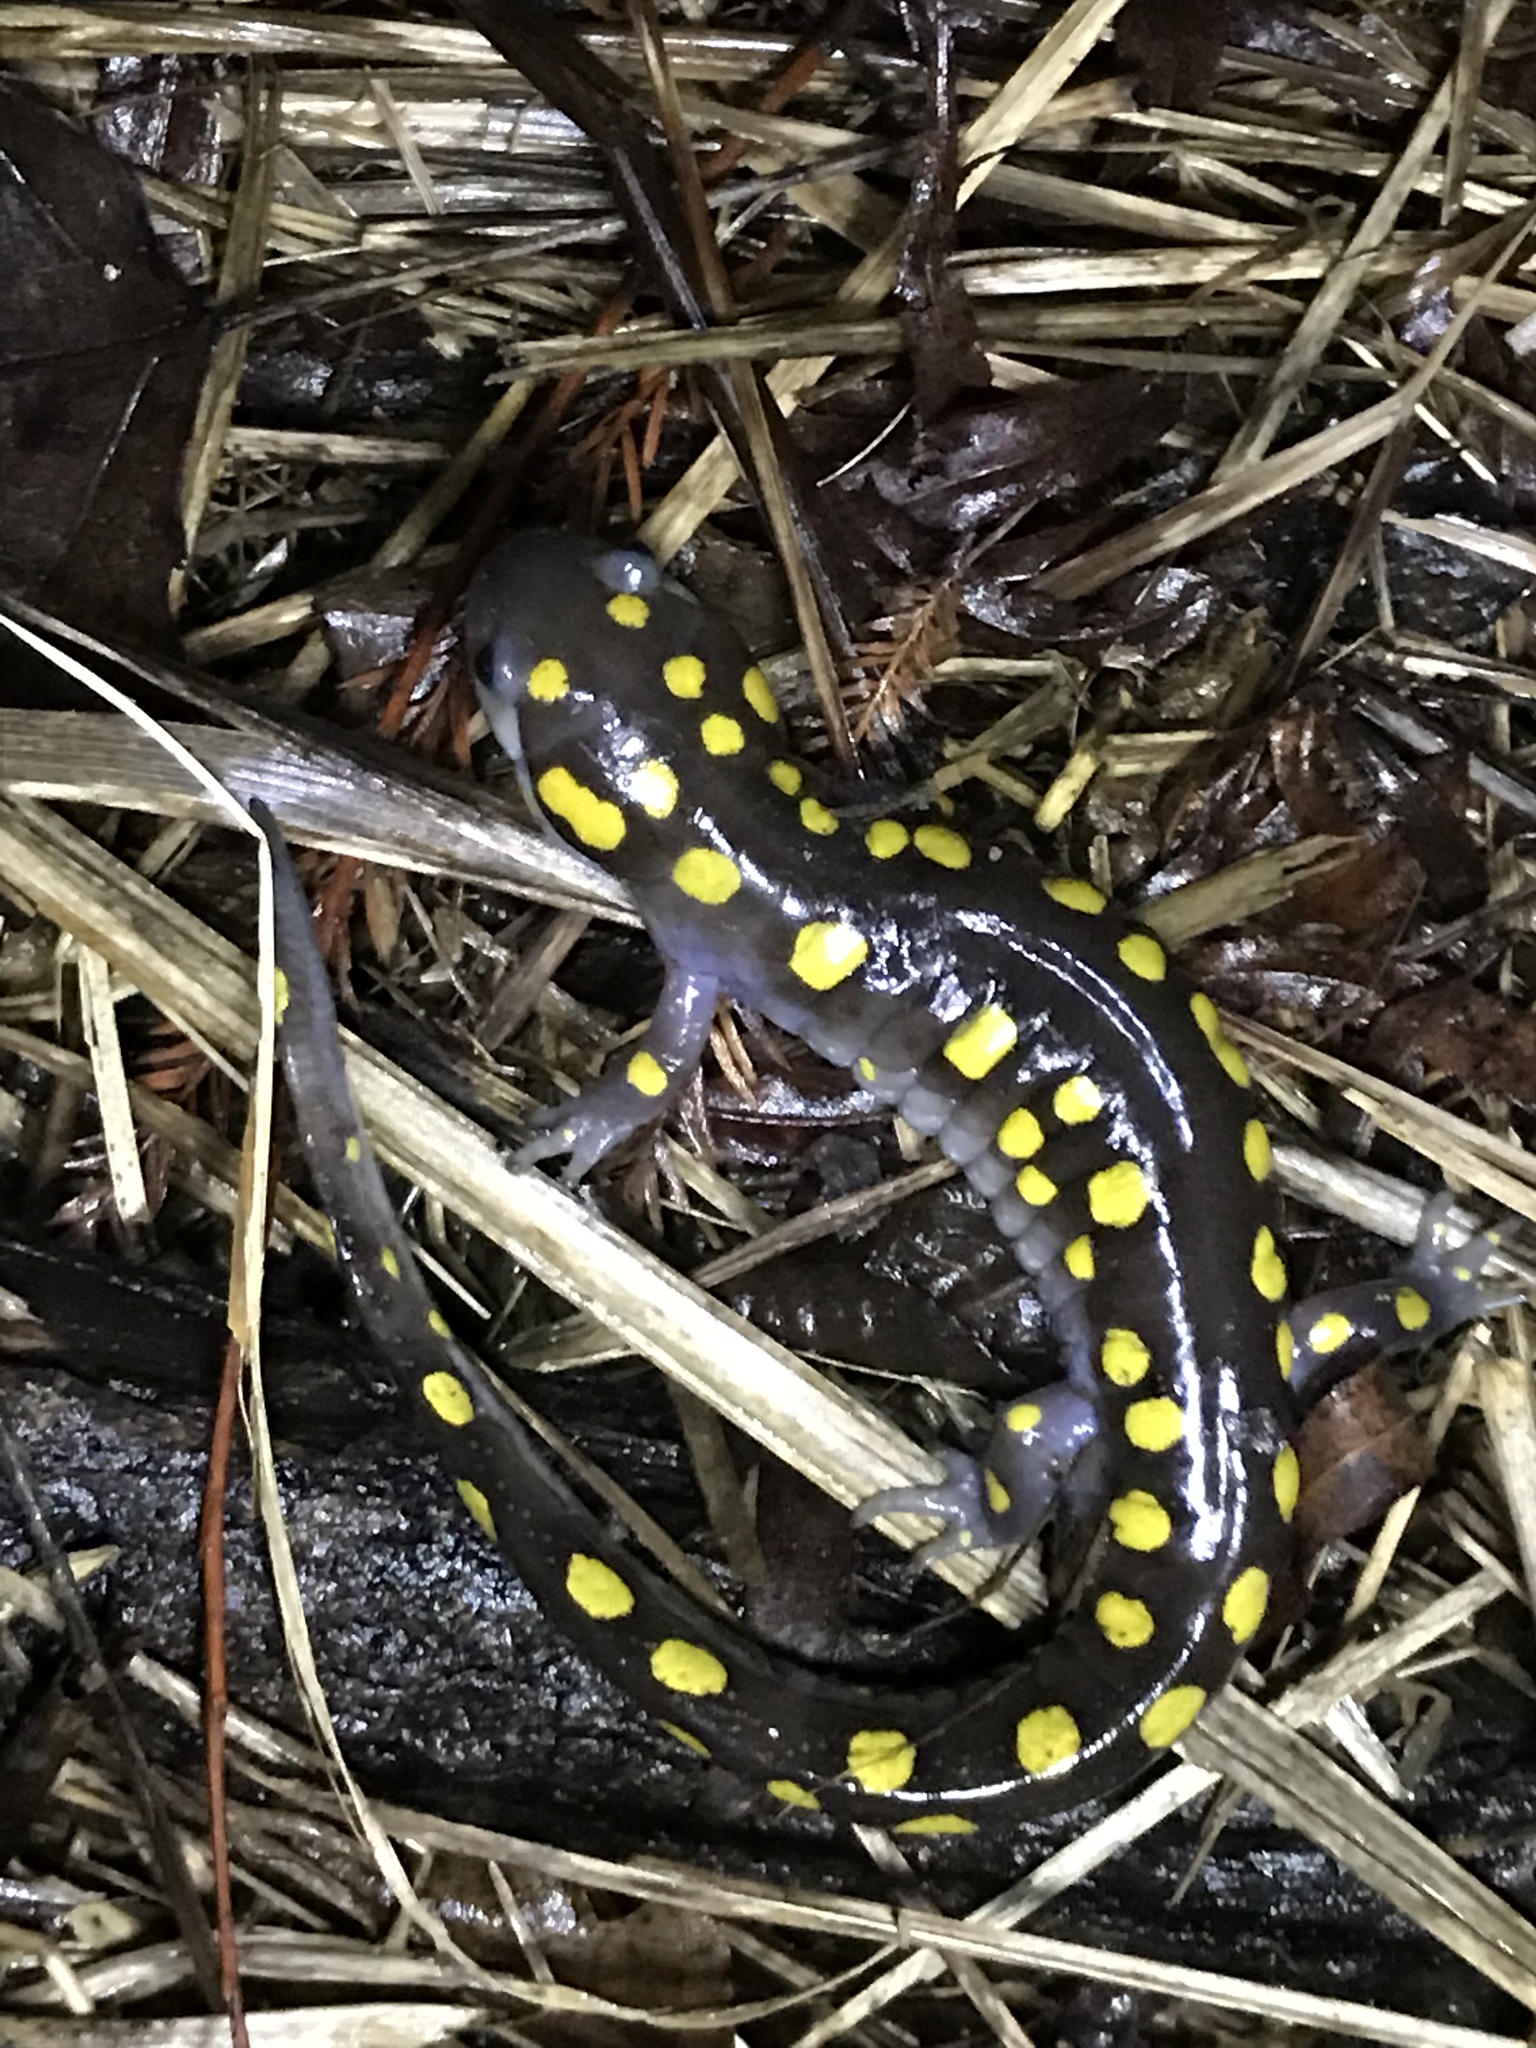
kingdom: Animalia
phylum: Chordata
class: Amphibia
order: Caudata
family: Ambystomatidae
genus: Ambystoma
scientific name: Ambystoma maculatum
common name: Spotted salamander
